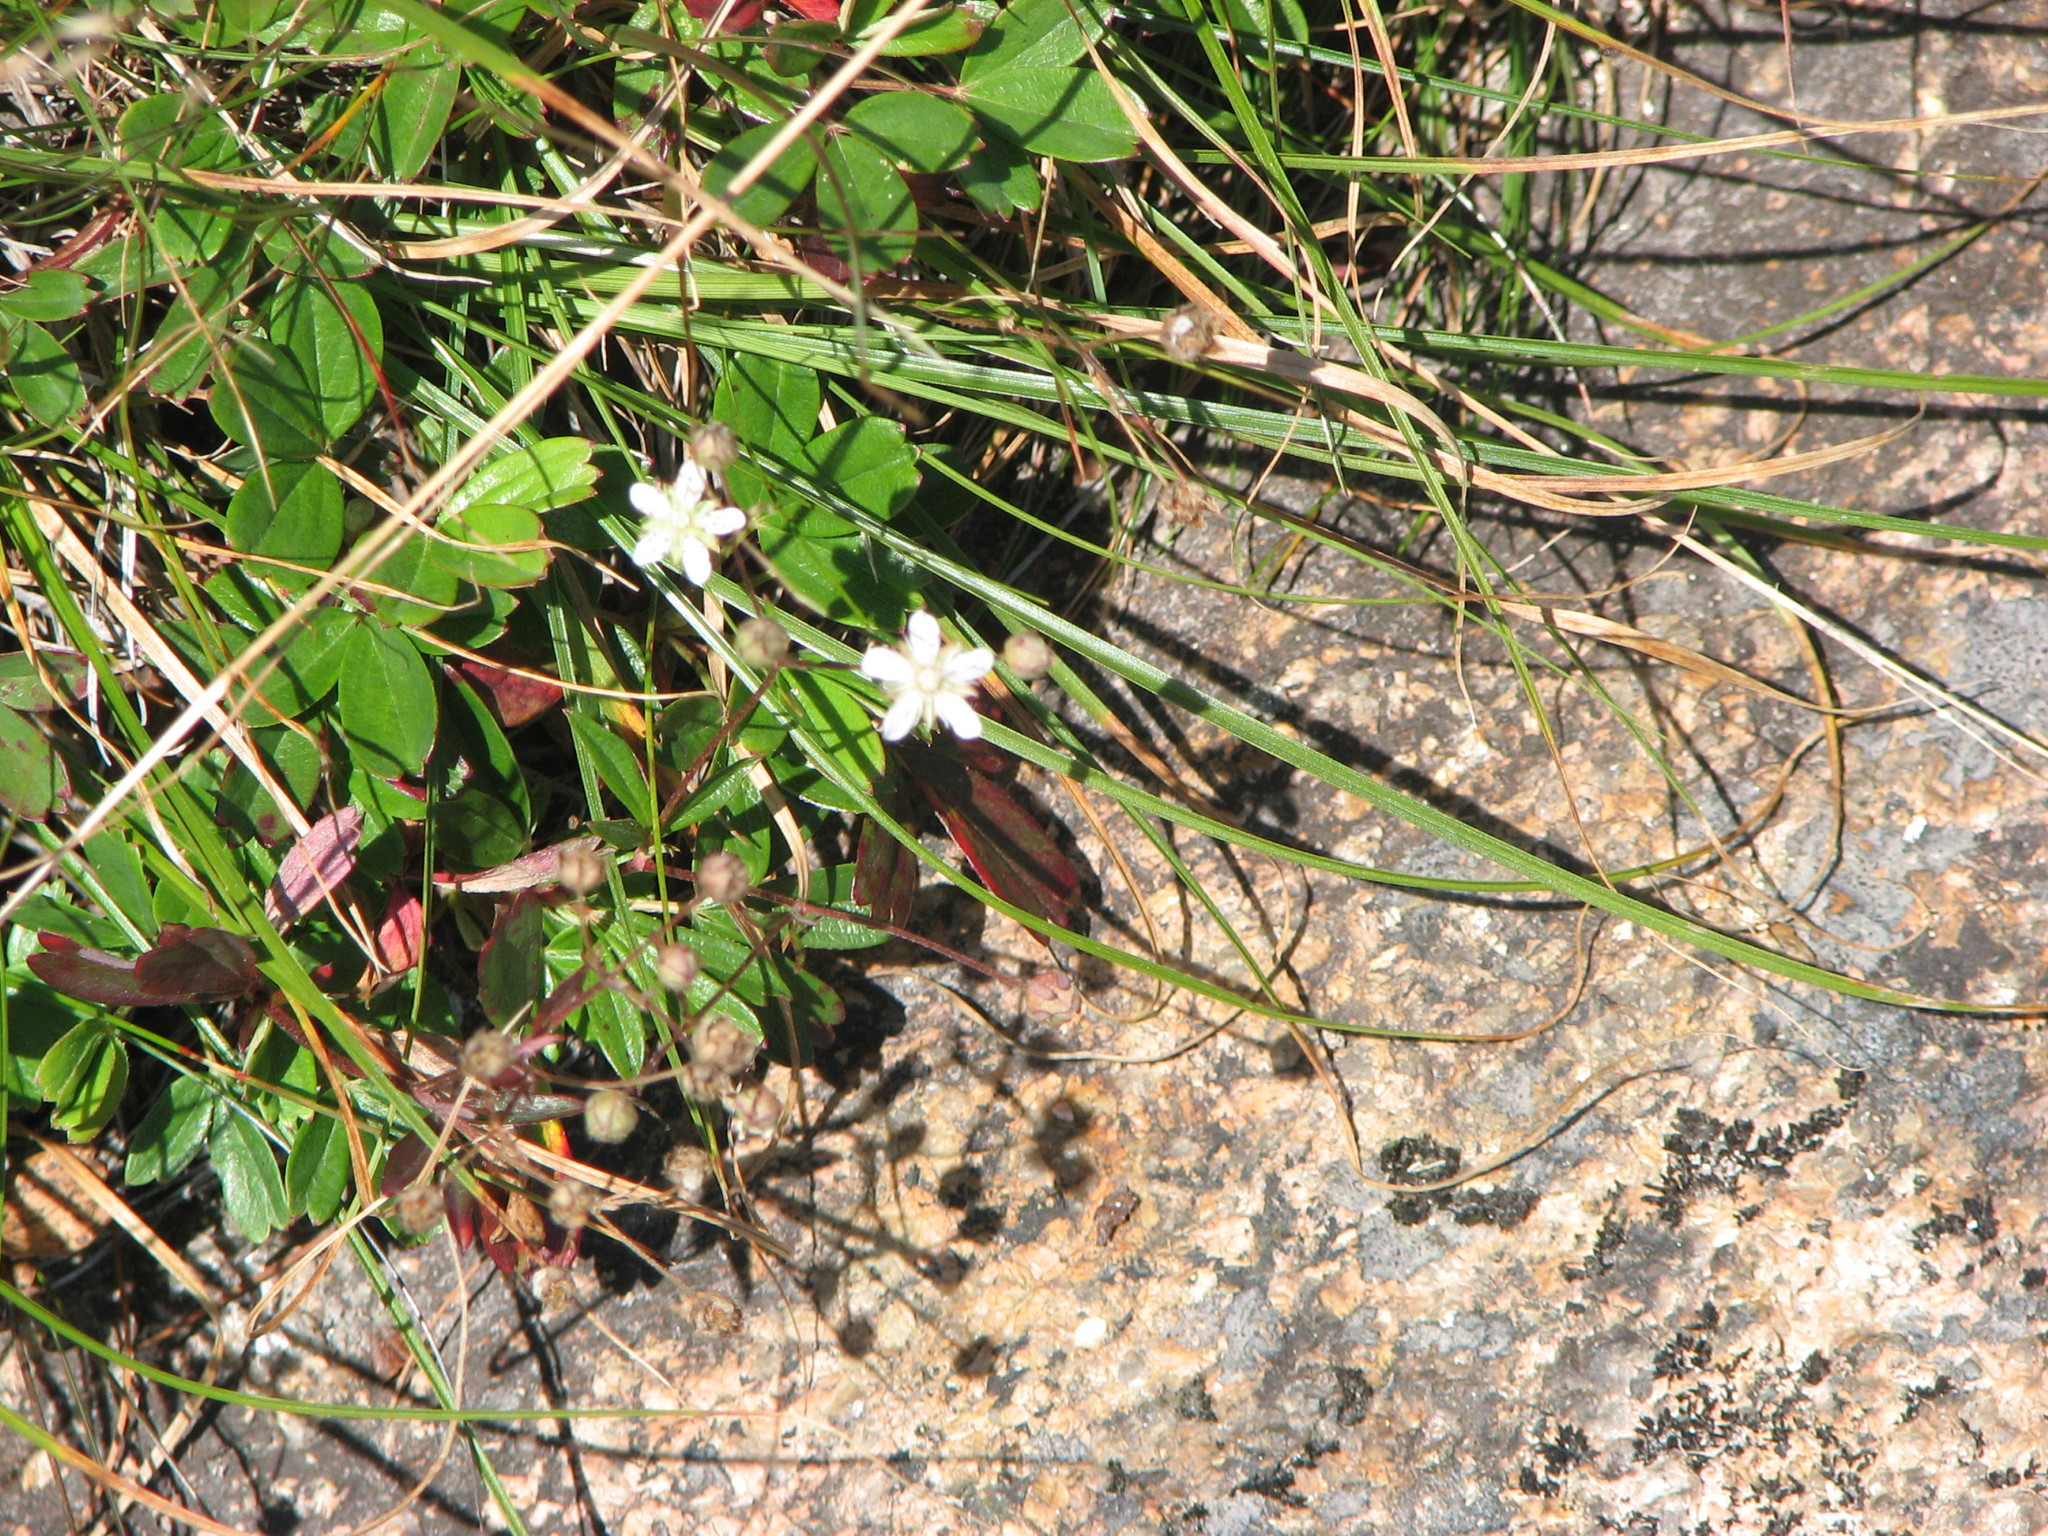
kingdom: Plantae
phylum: Tracheophyta
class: Magnoliopsida
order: Rosales
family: Rosaceae
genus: Sibbaldia
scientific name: Sibbaldia tridentata
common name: Three-toothed cinquefoil
